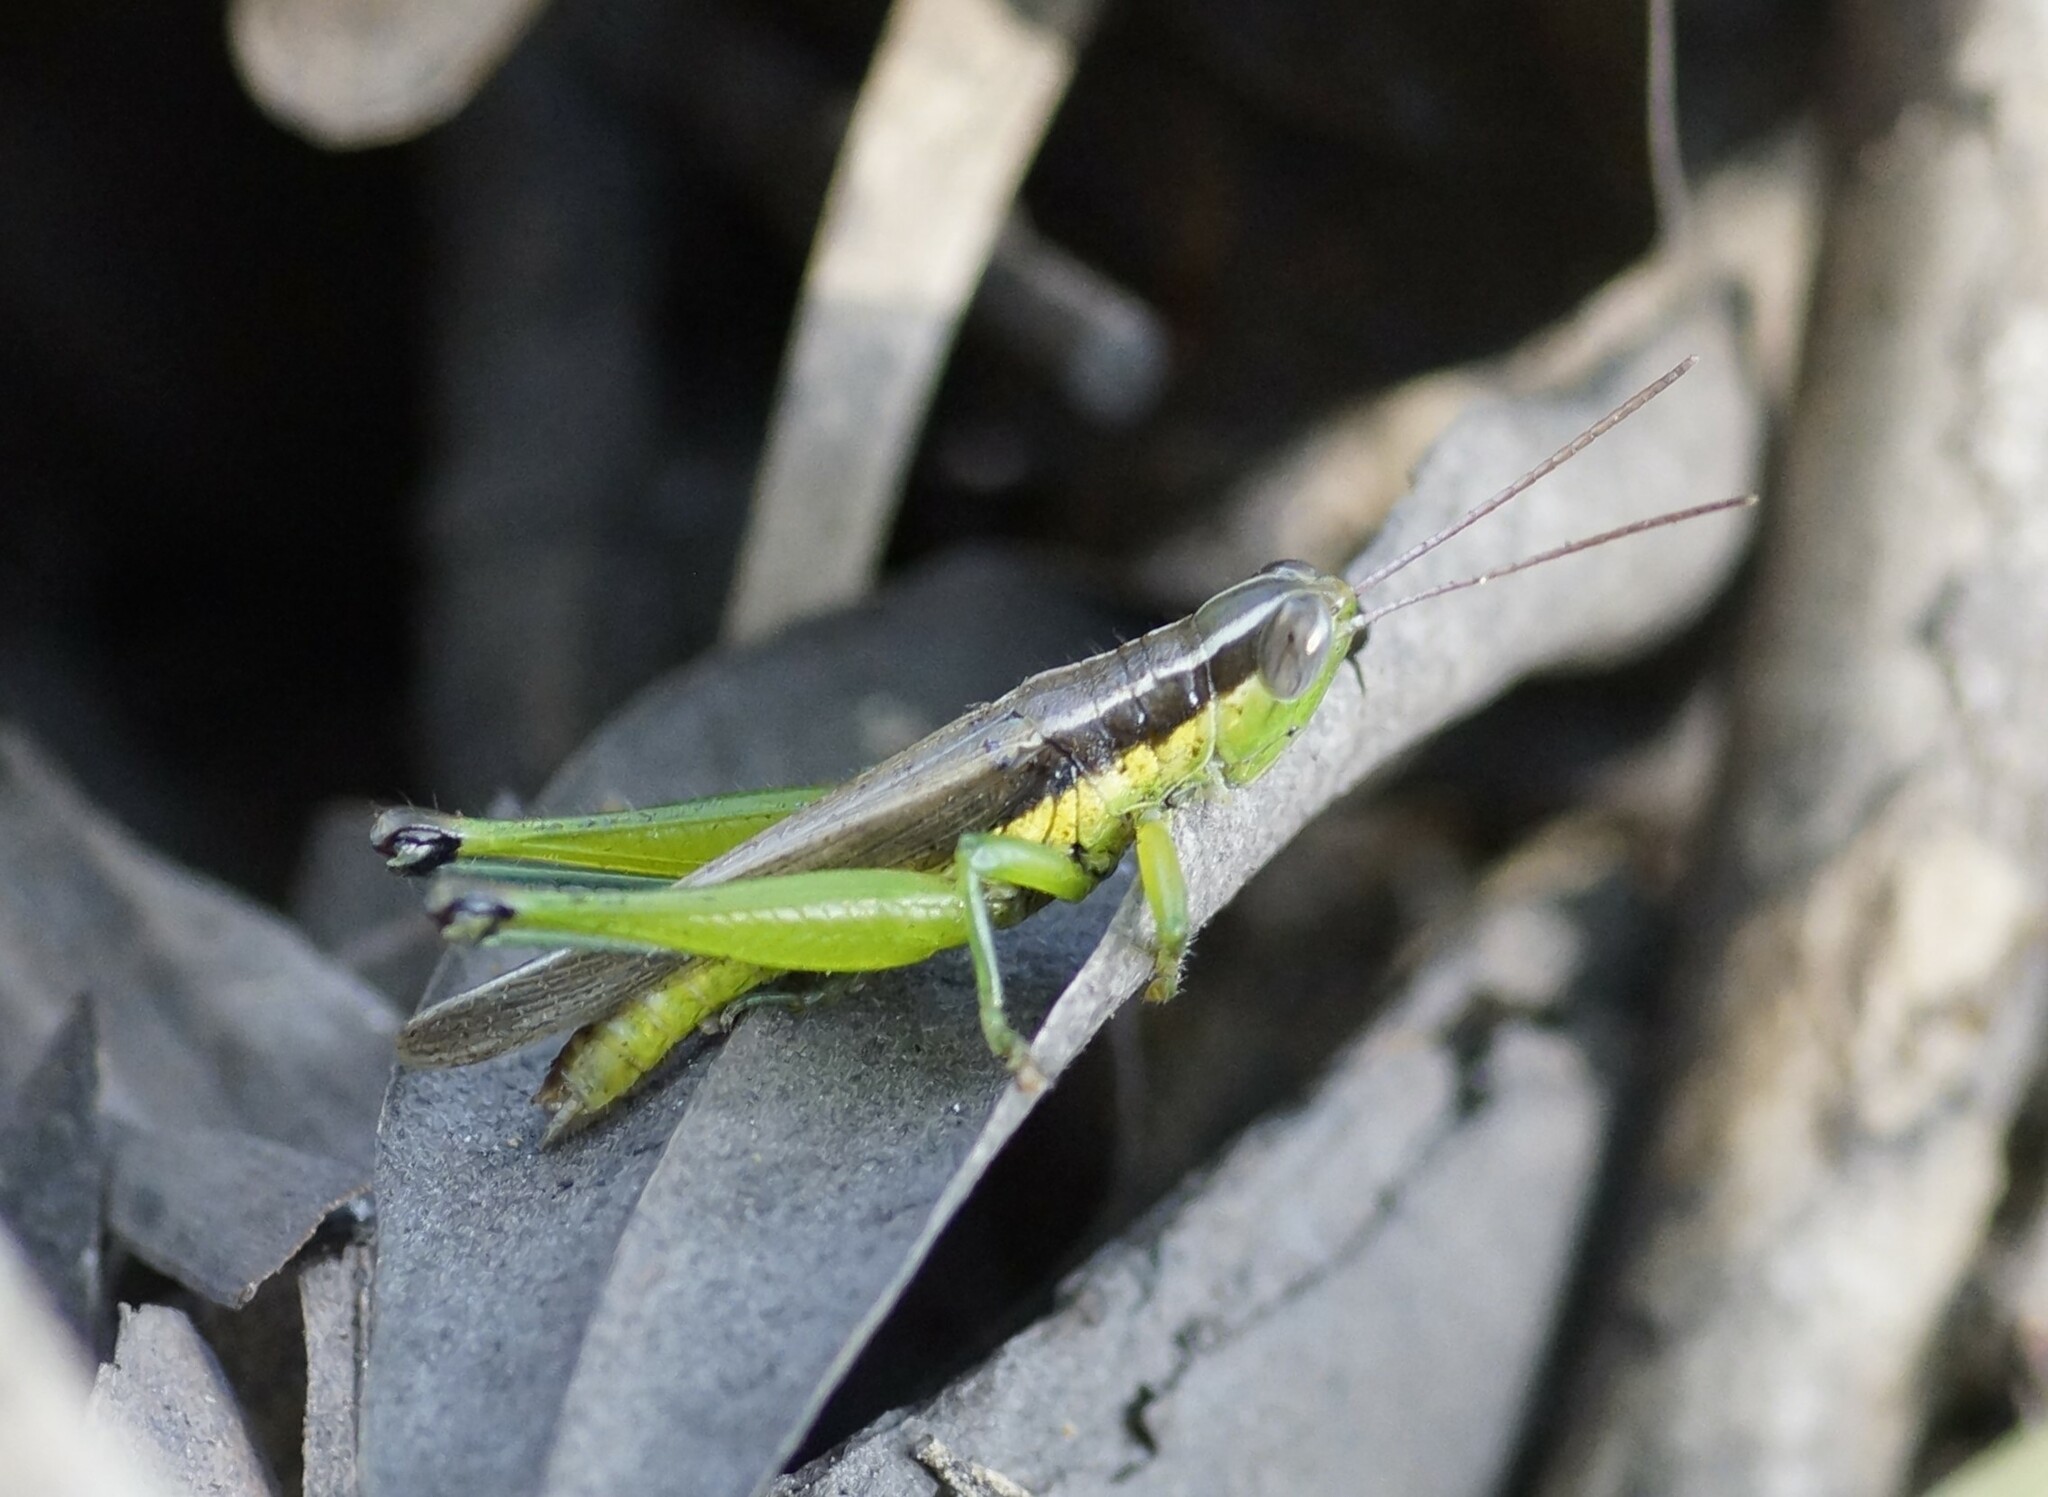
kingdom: Animalia
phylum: Arthropoda
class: Insecta
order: Orthoptera
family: Acrididae
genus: Oxya
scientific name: Oxya japonica
